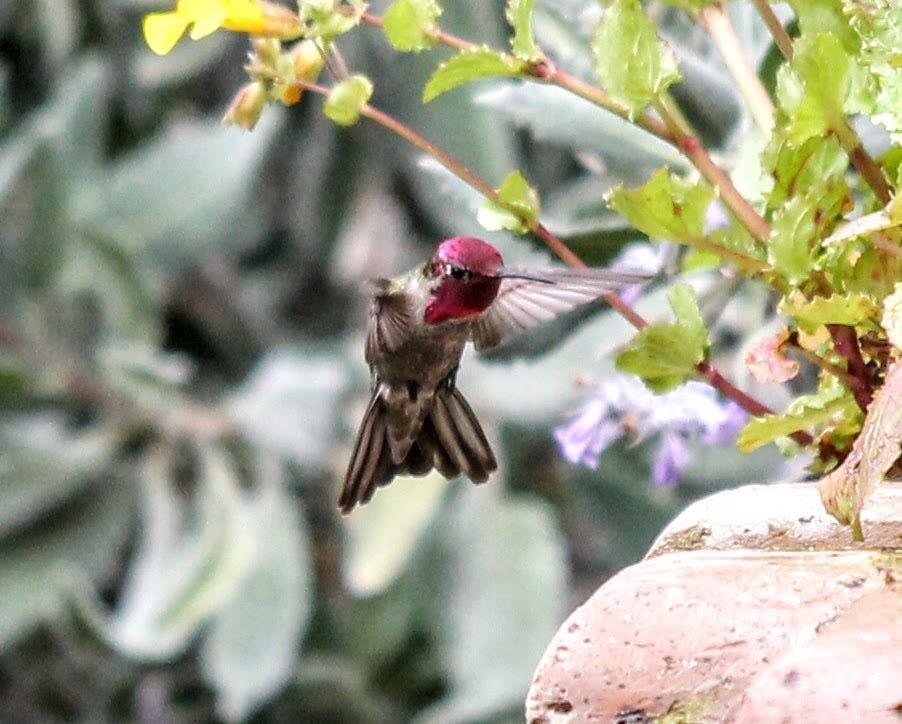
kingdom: Animalia
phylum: Chordata
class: Aves
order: Apodiformes
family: Trochilidae
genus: Calypte
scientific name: Calypte anna
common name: Anna's hummingbird
